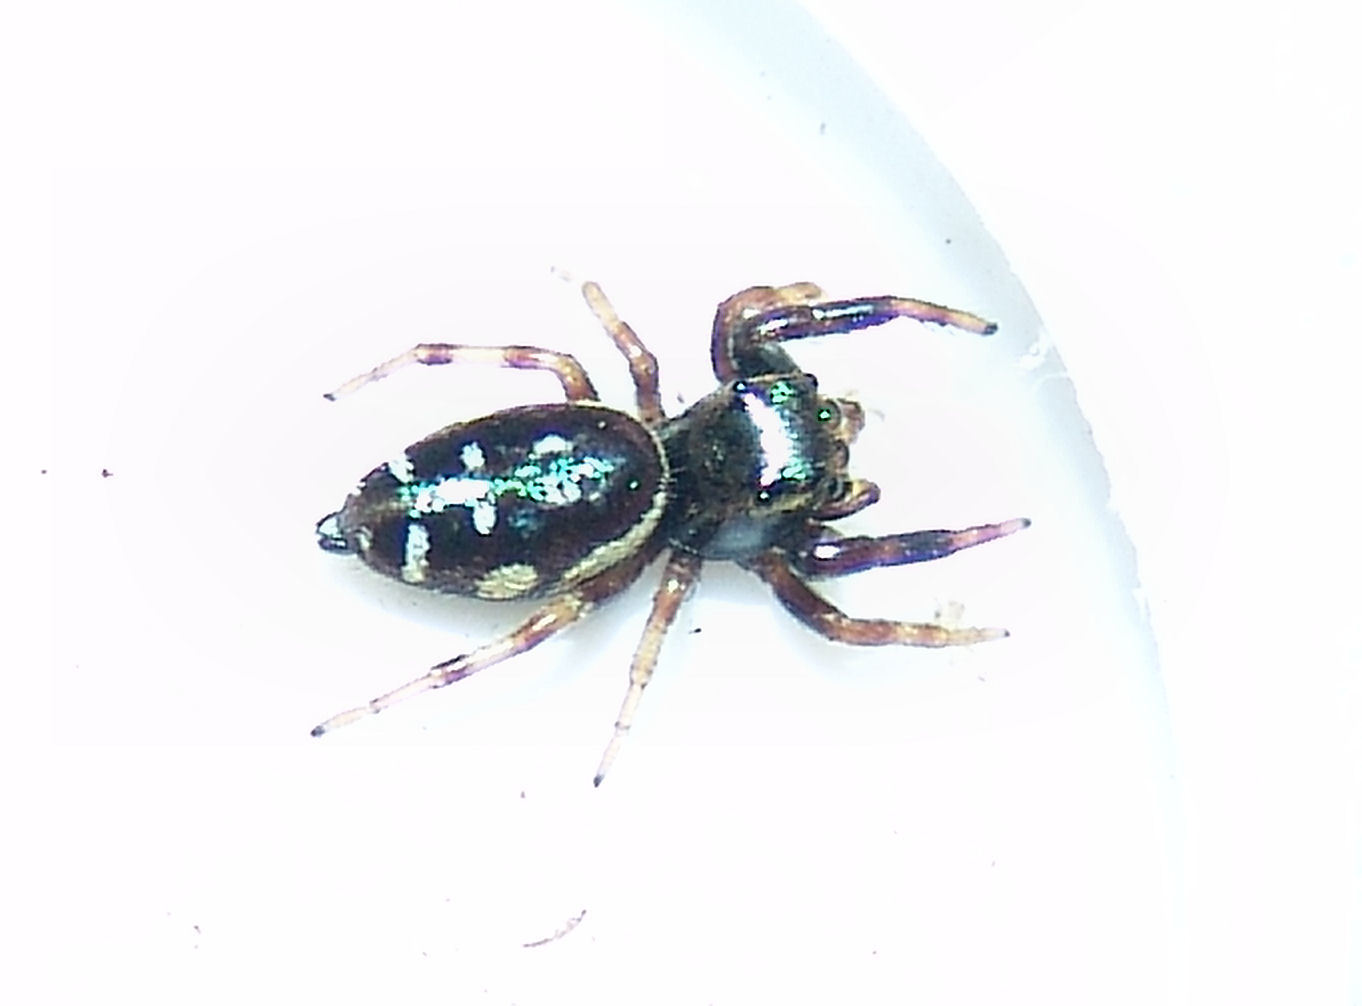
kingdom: Animalia
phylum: Arthropoda
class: Arachnida
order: Araneae
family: Salticidae
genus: Paraphidippus
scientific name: Paraphidippus aurantius
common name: Jumping spiders
